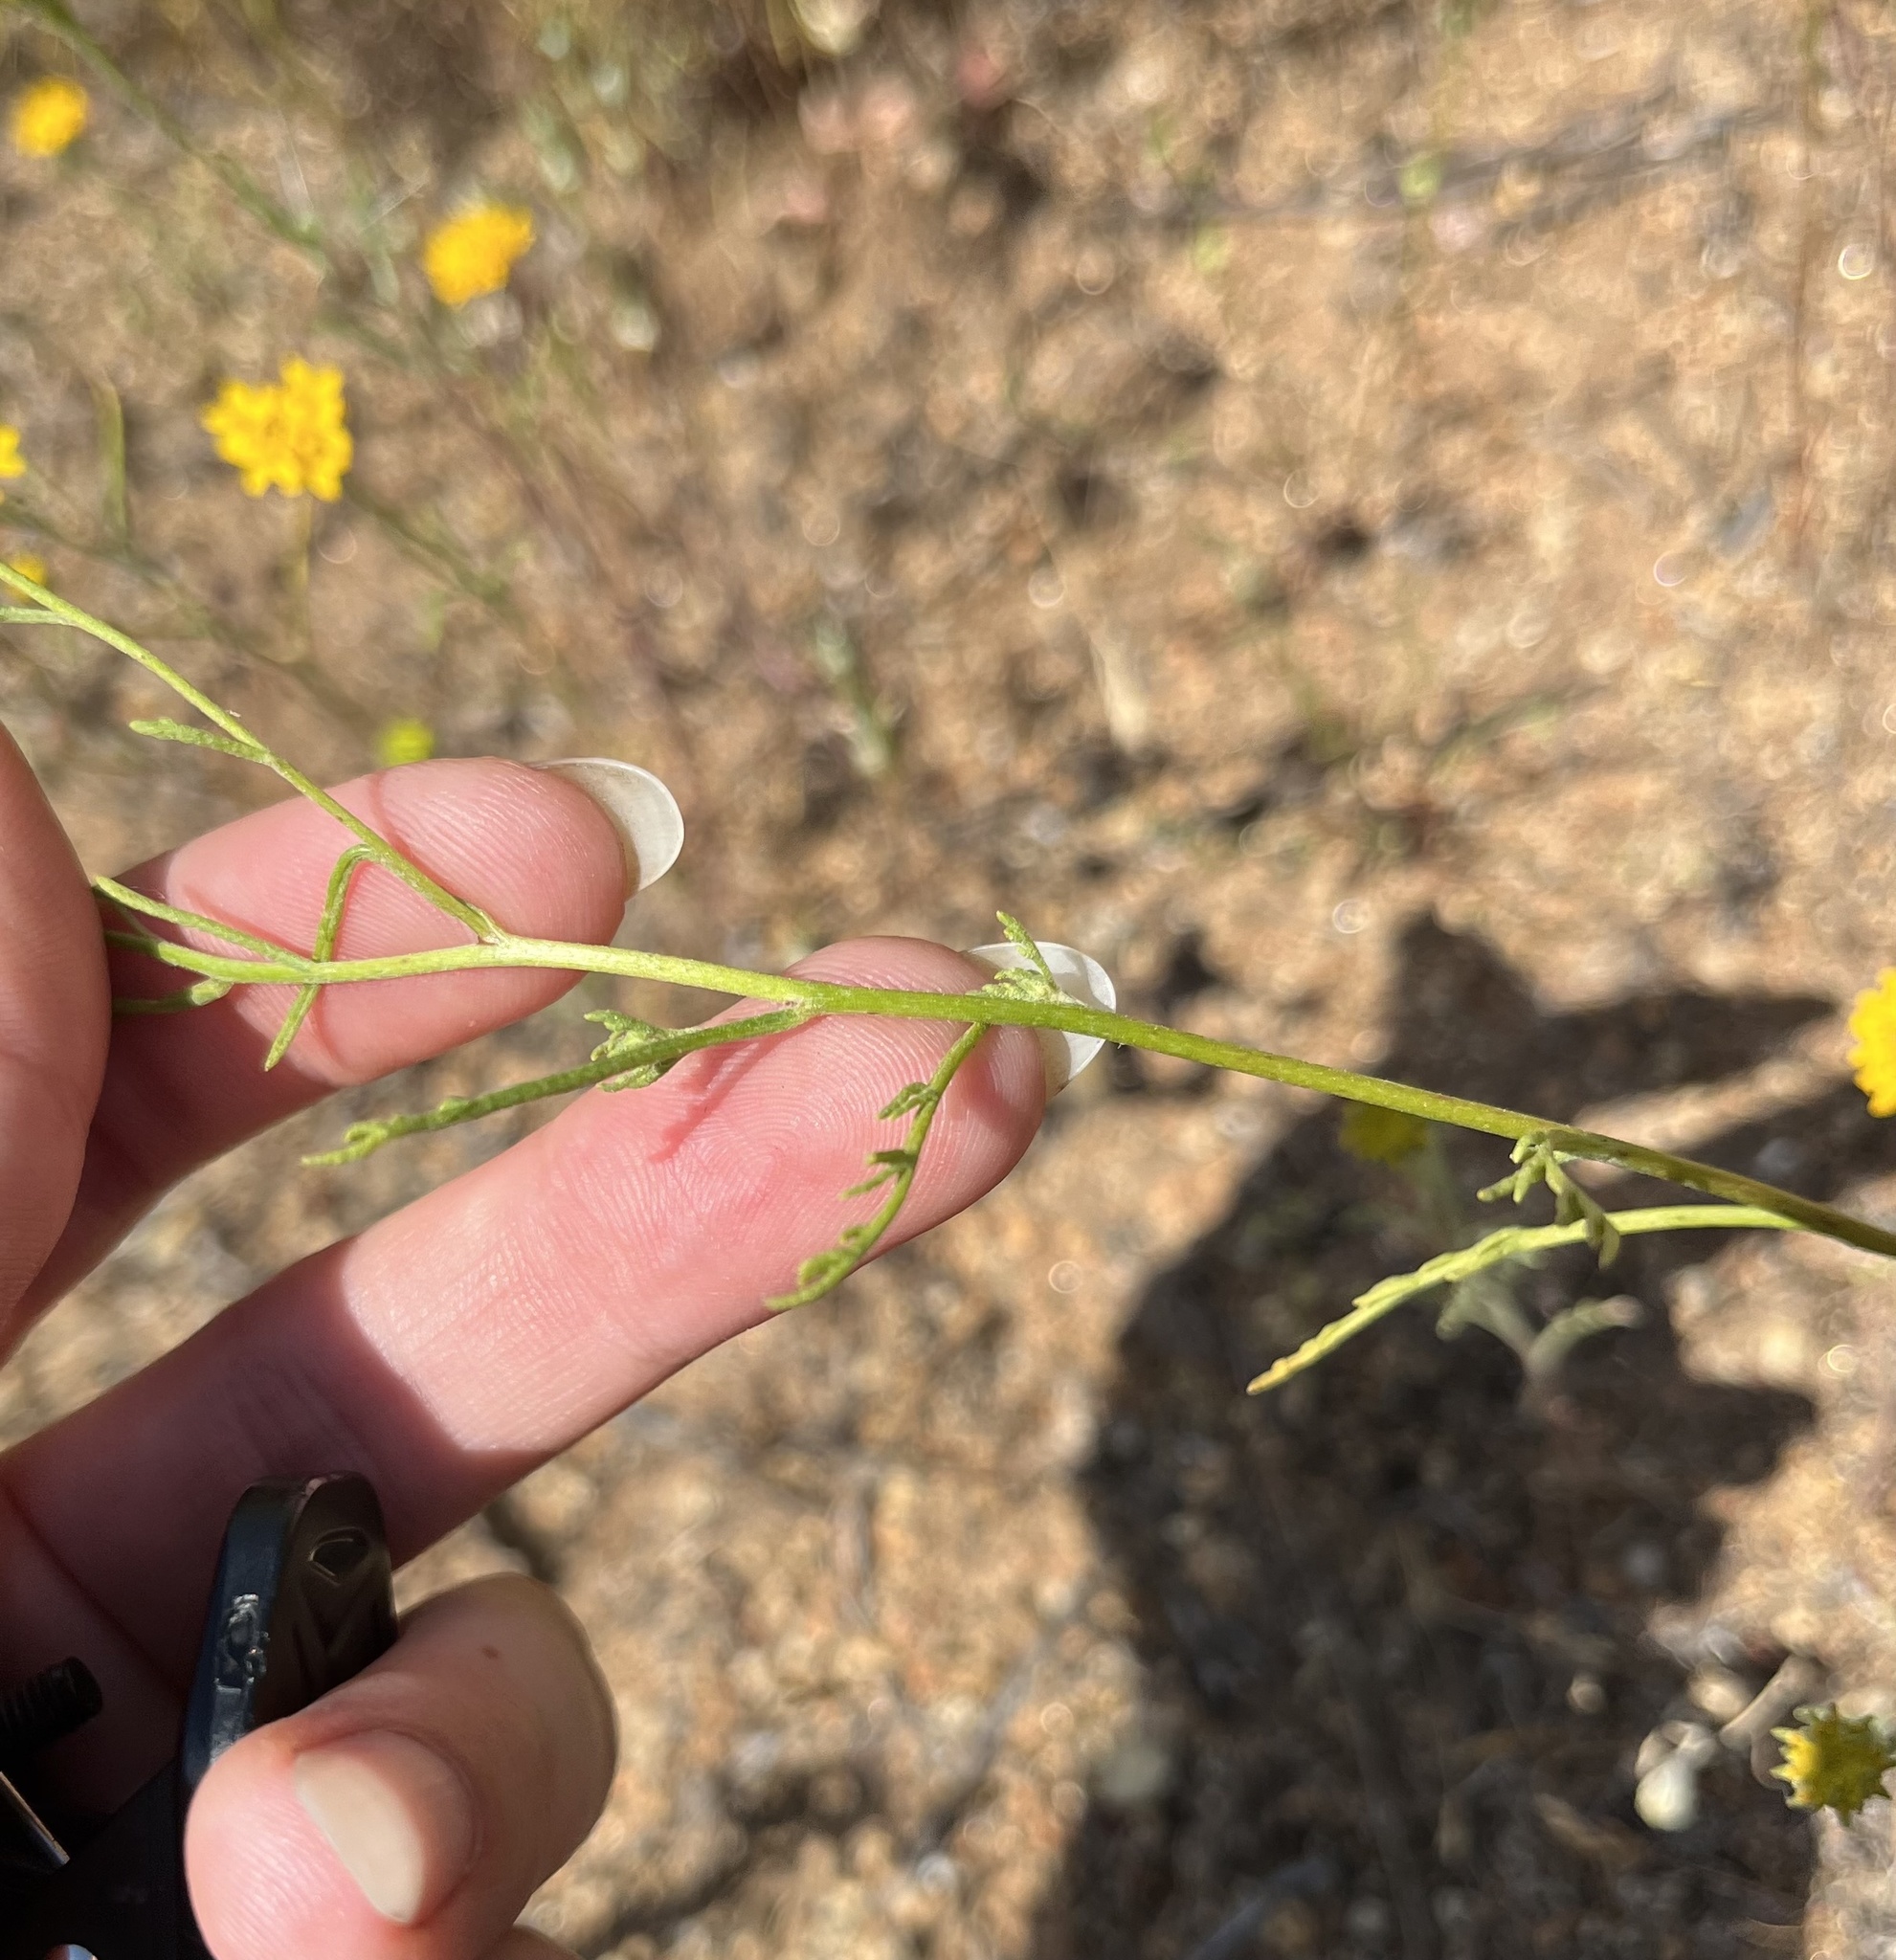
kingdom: Plantae
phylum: Tracheophyta
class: Magnoliopsida
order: Asterales
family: Asteraceae
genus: Chaenactis
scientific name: Chaenactis glabriuscula
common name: Yellow pincushion
